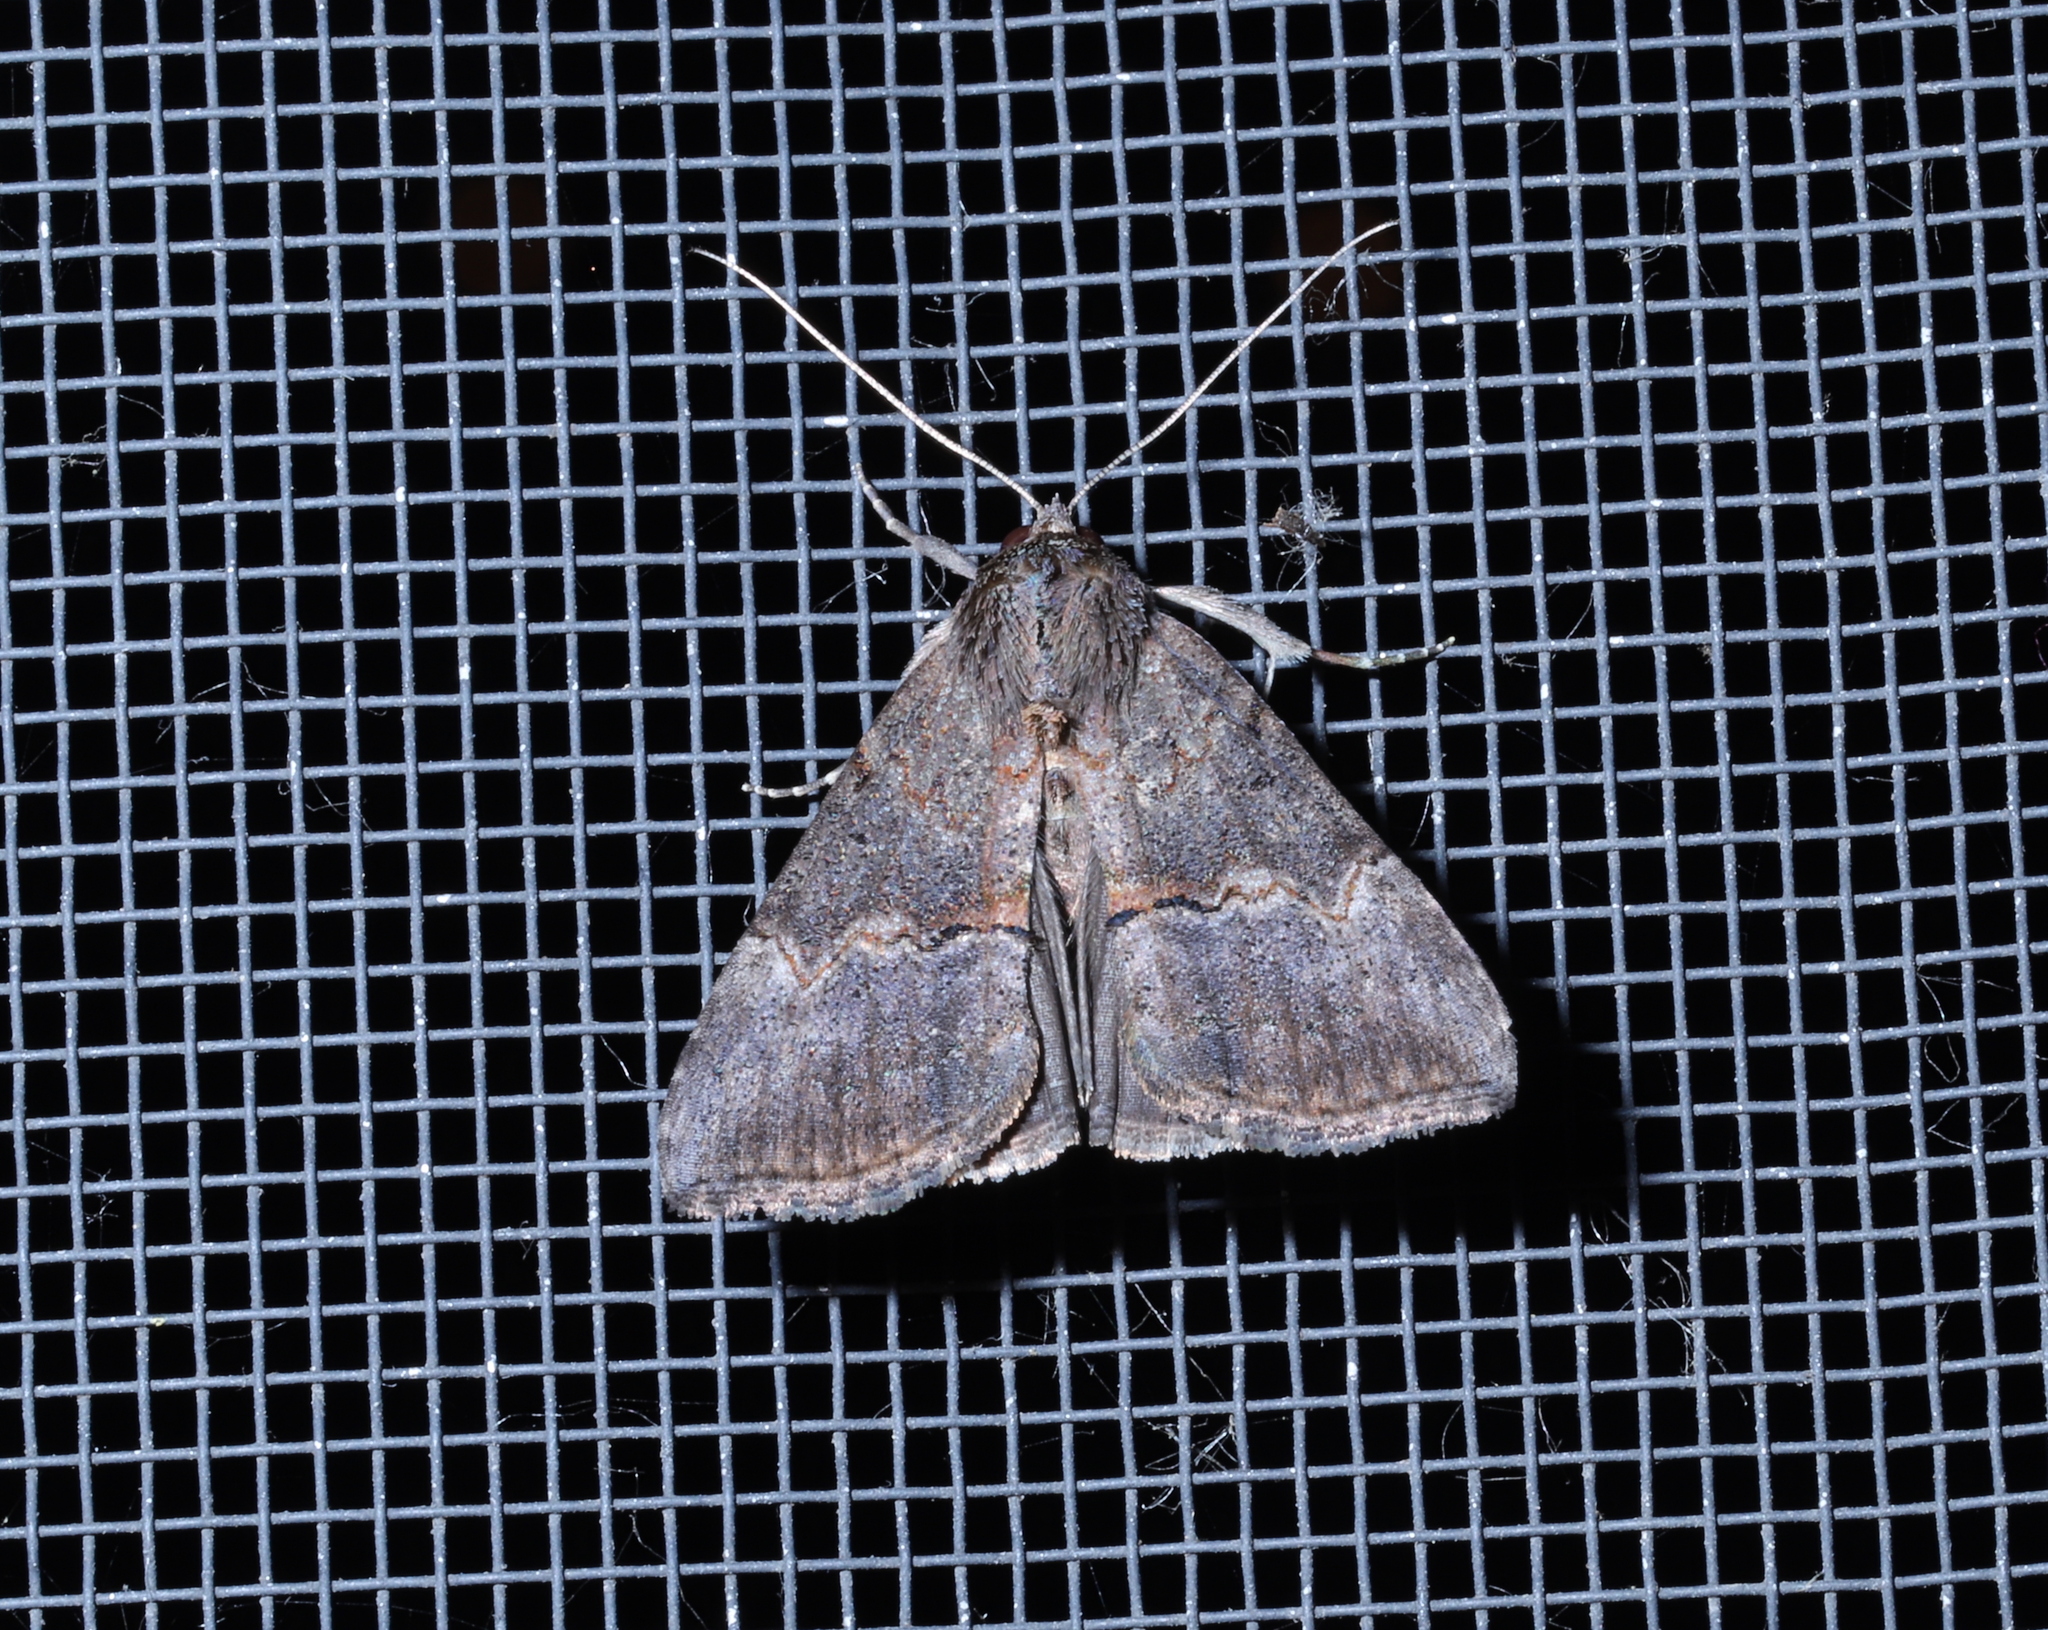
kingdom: Animalia
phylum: Arthropoda
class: Insecta
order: Lepidoptera
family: Erebidae
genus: Hypena
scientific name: Hypena scabra
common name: Green cloverworm
